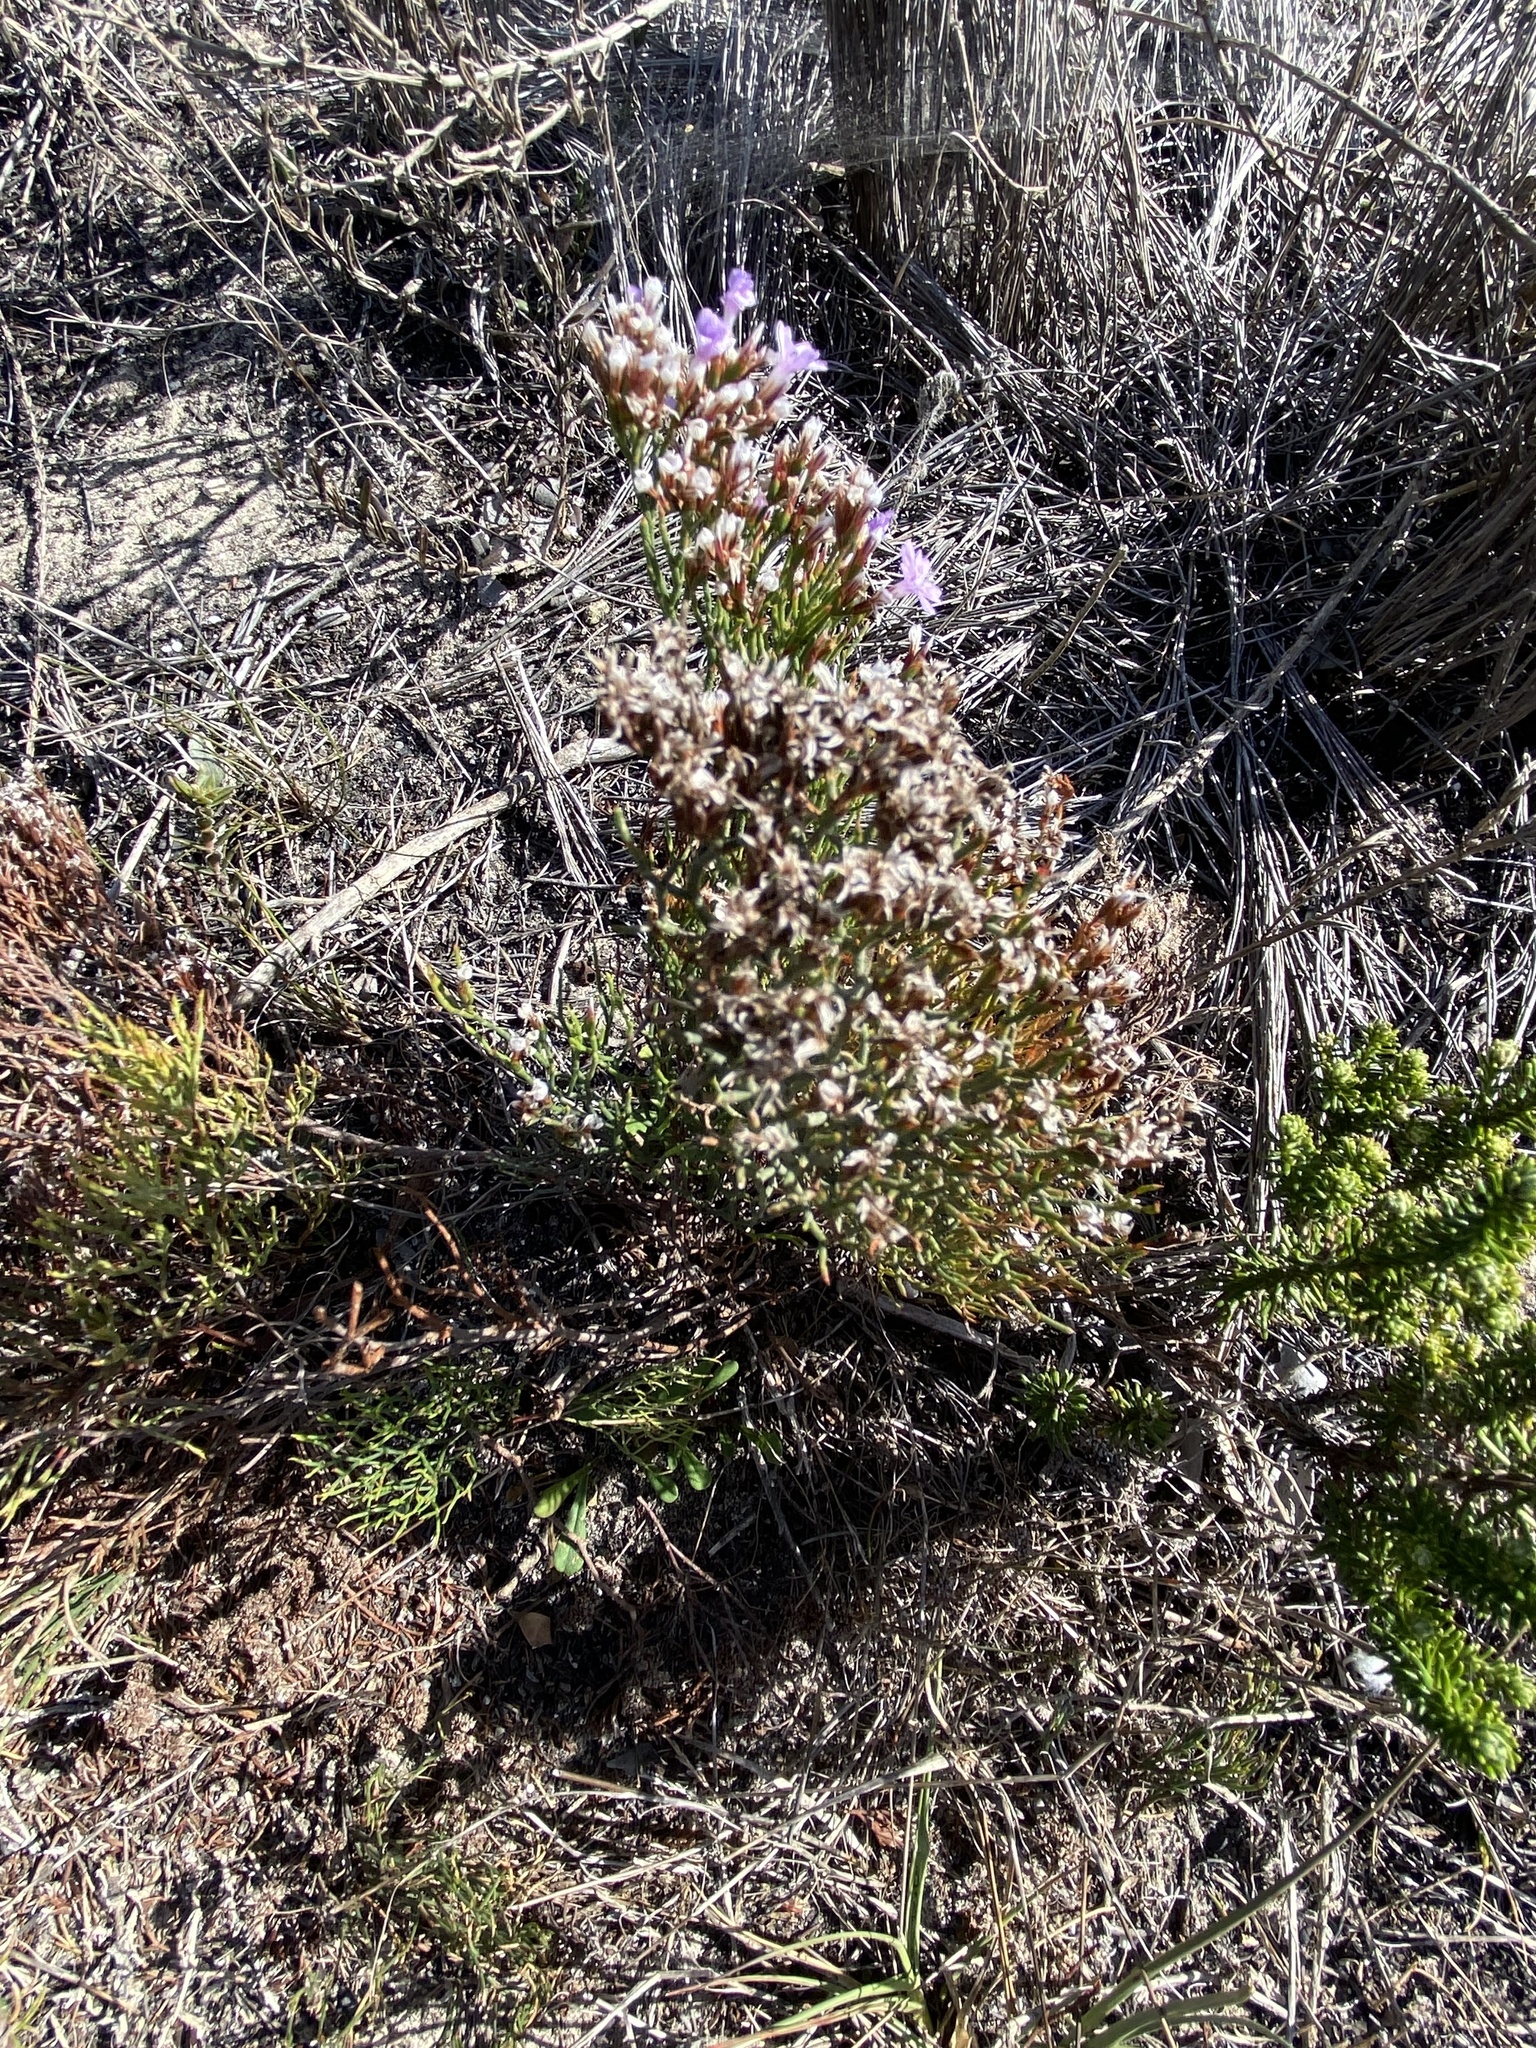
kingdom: Plantae
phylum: Tracheophyta
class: Magnoliopsida
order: Caryophyllales
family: Plumbaginaceae
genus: Limonium
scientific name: Limonium scabrum
